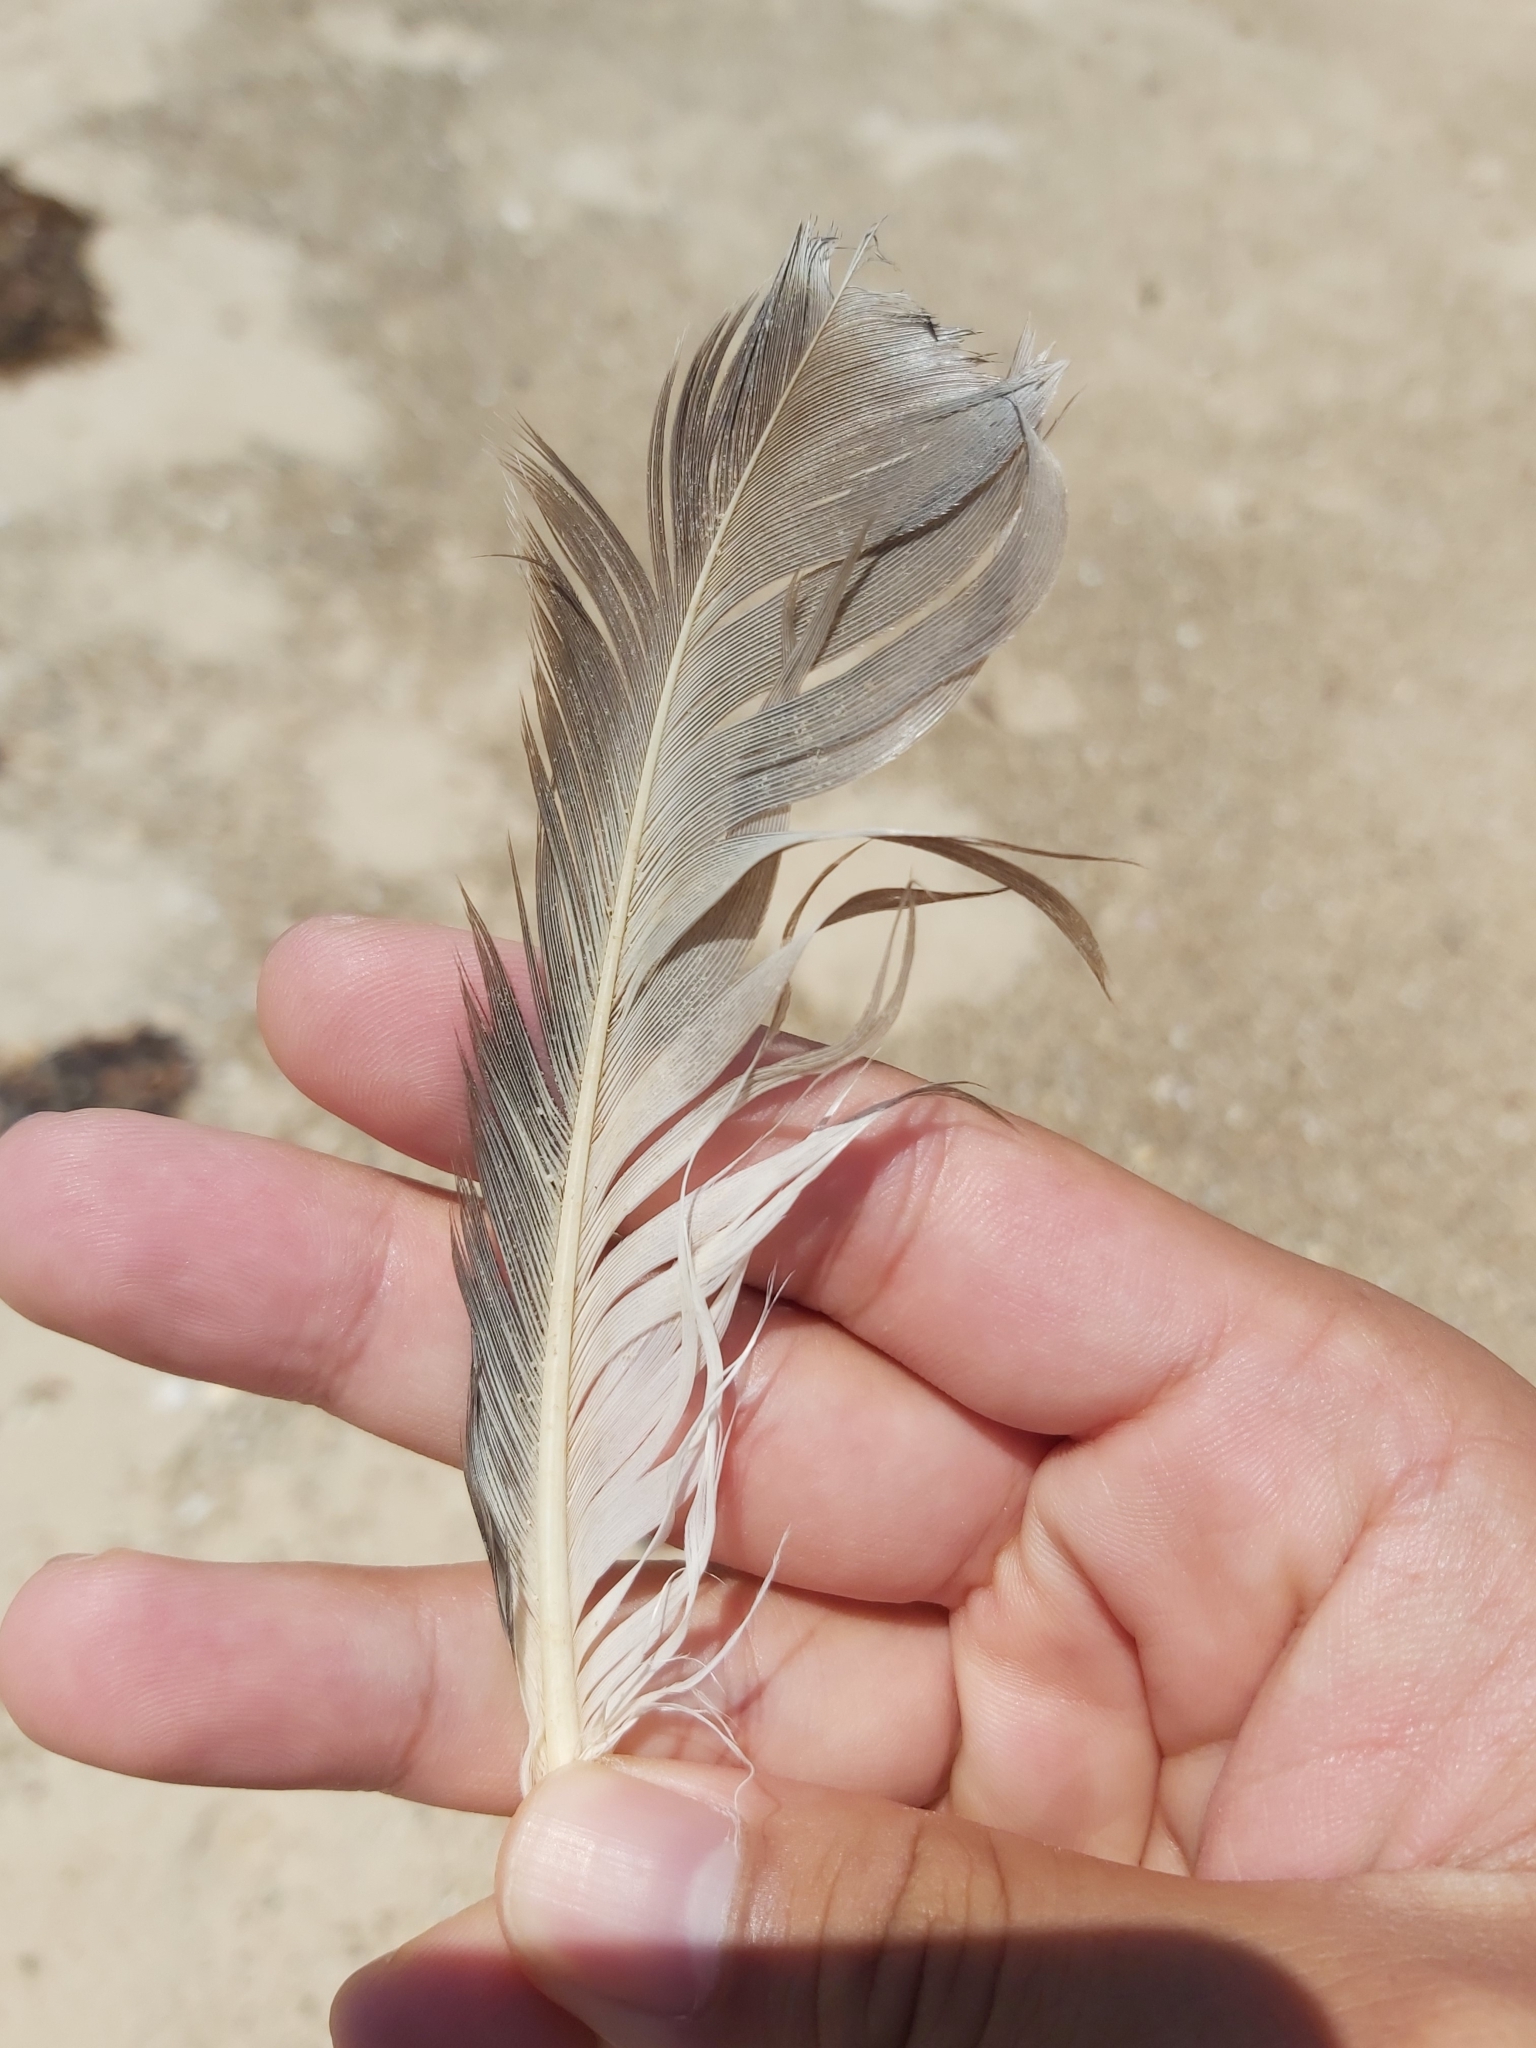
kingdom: Animalia
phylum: Chordata
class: Aves
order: Charadriiformes
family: Stercorariidae
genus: Stercorarius
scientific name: Stercorarius pomarinus
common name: Pomarine jaeger
